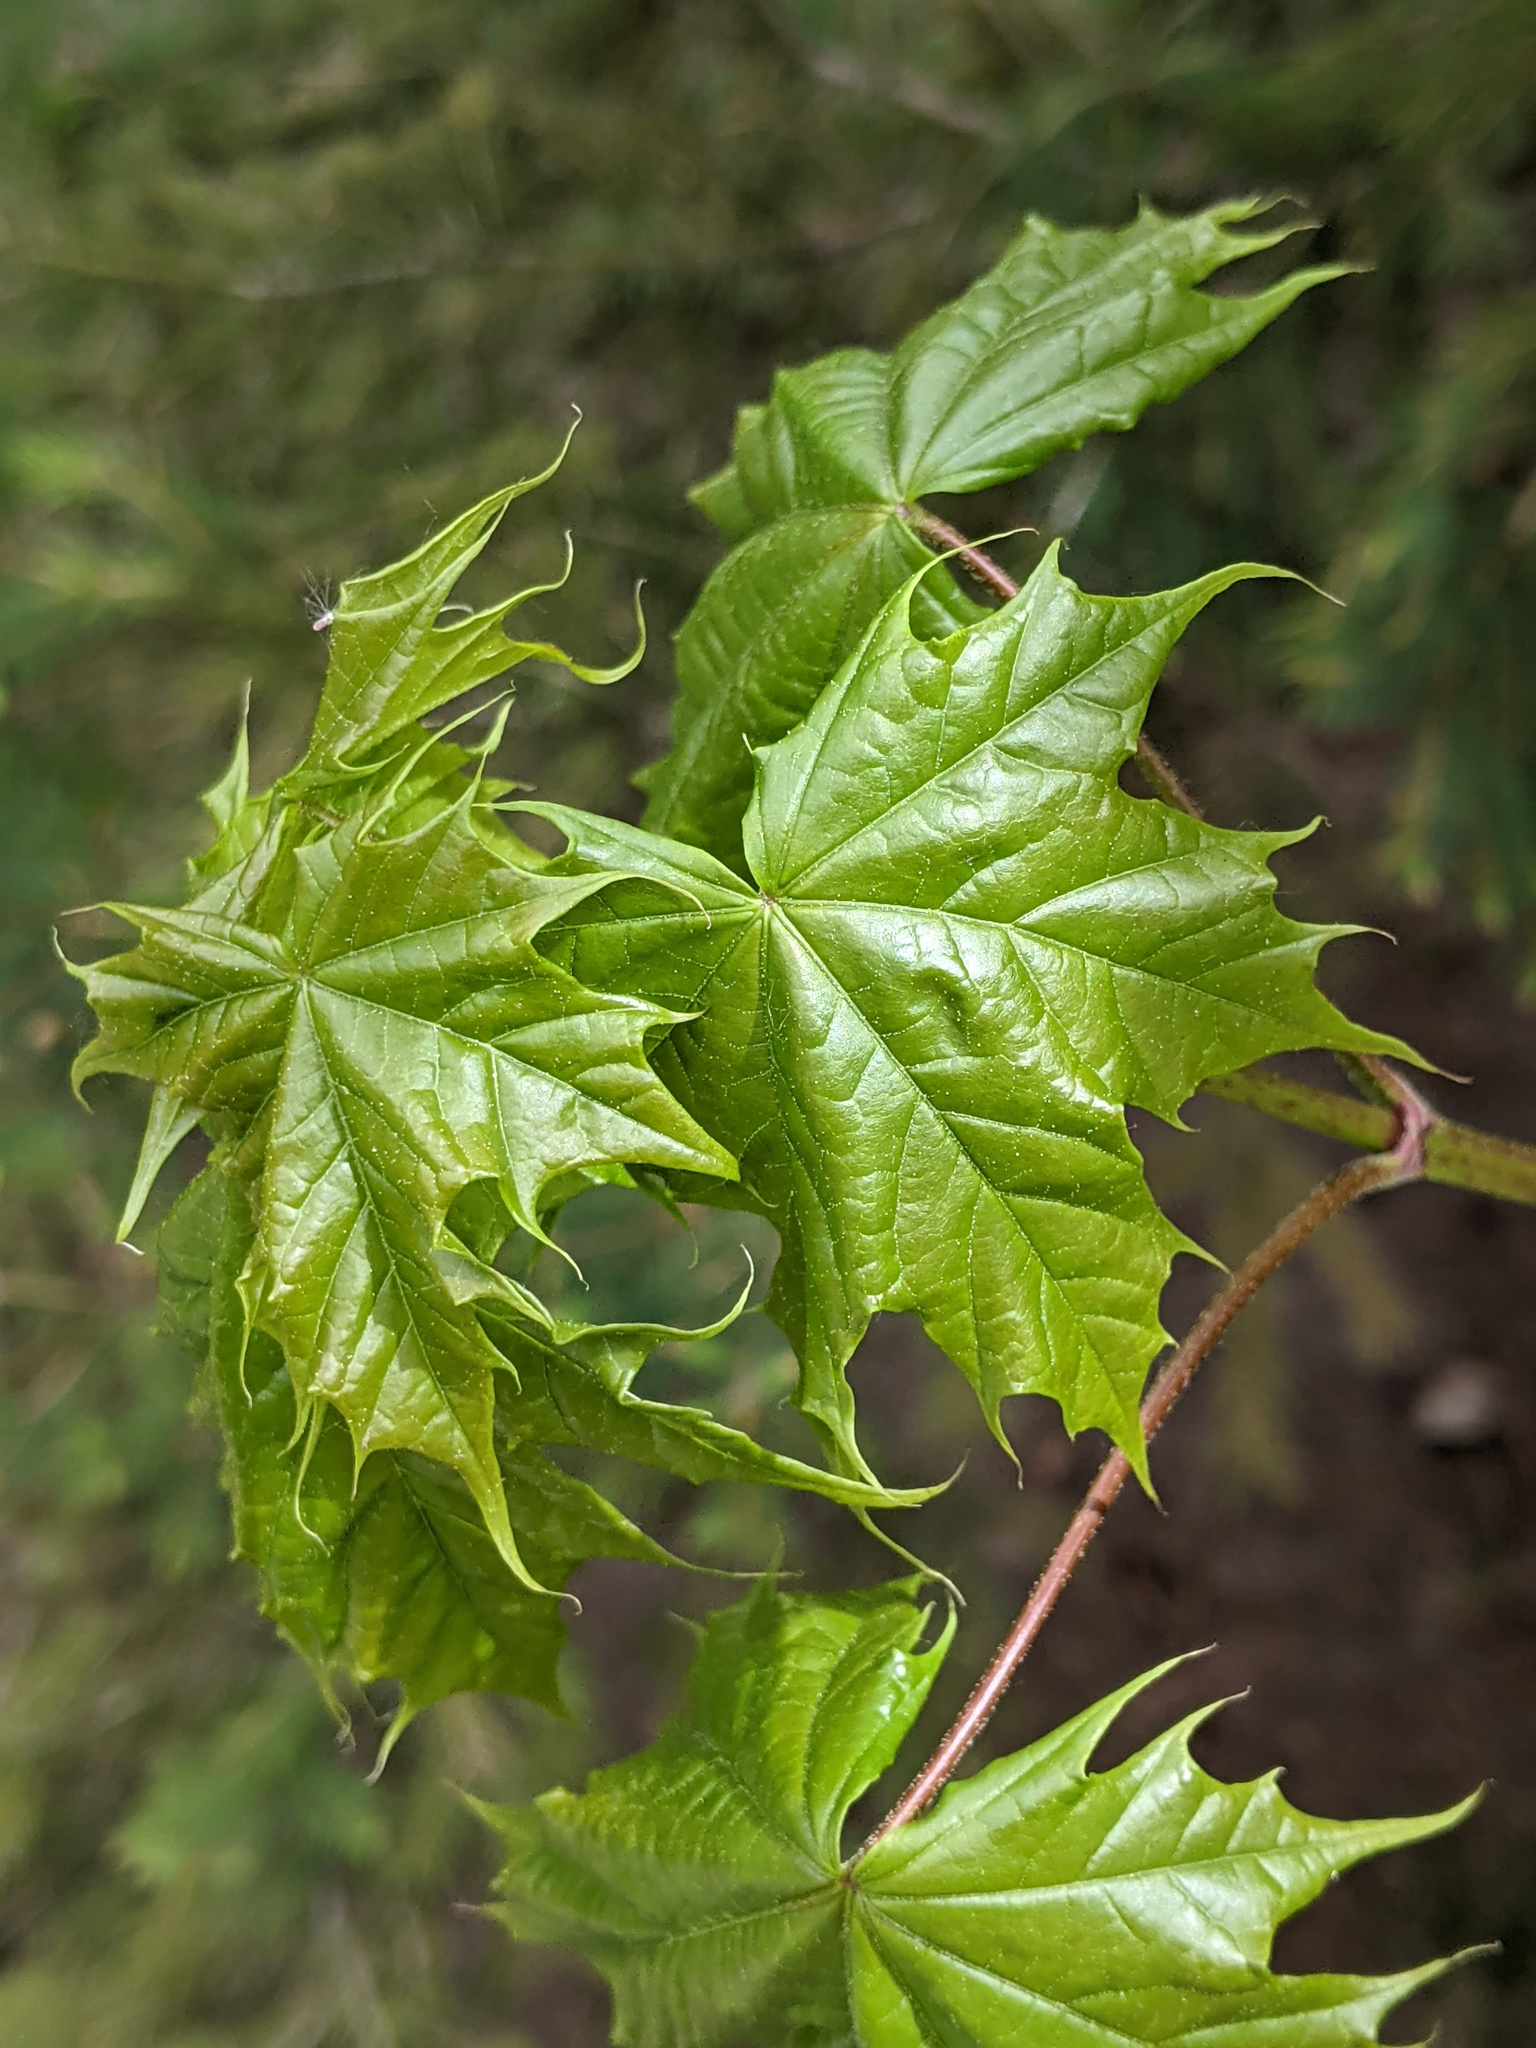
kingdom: Plantae
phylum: Tracheophyta
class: Magnoliopsida
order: Sapindales
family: Sapindaceae
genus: Acer
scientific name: Acer platanoides
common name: Norway maple
